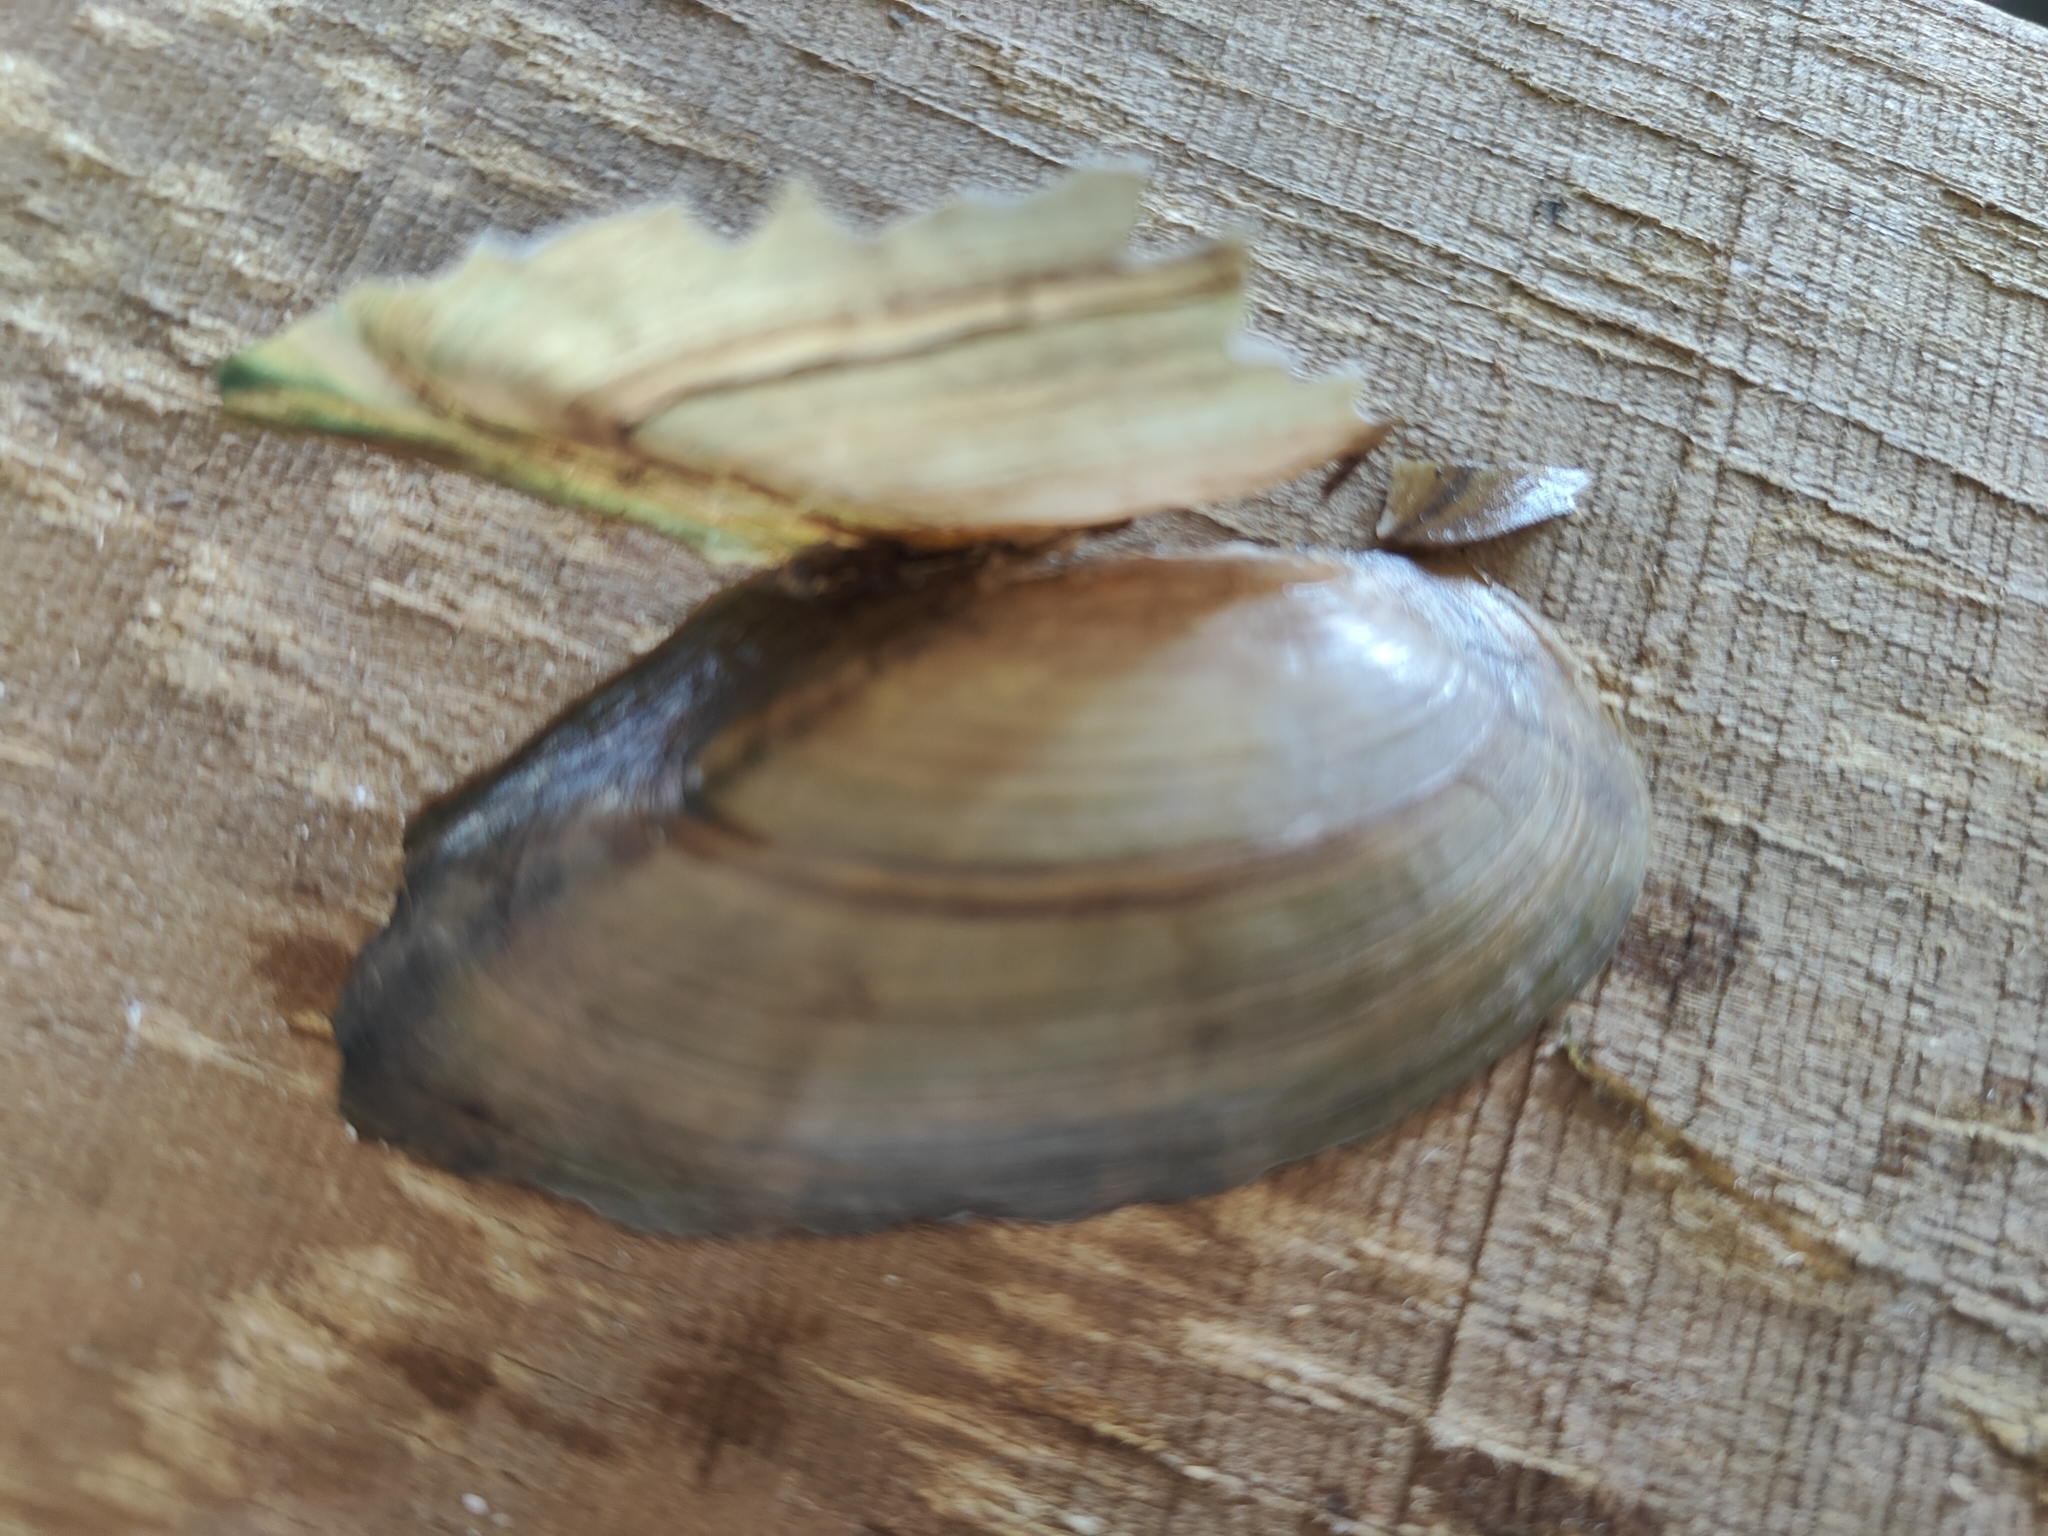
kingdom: Animalia
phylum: Mollusca
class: Bivalvia
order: Unionida
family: Unionidae
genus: Utterbackia
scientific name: Utterbackia imbecillis
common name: Paper pondshell
